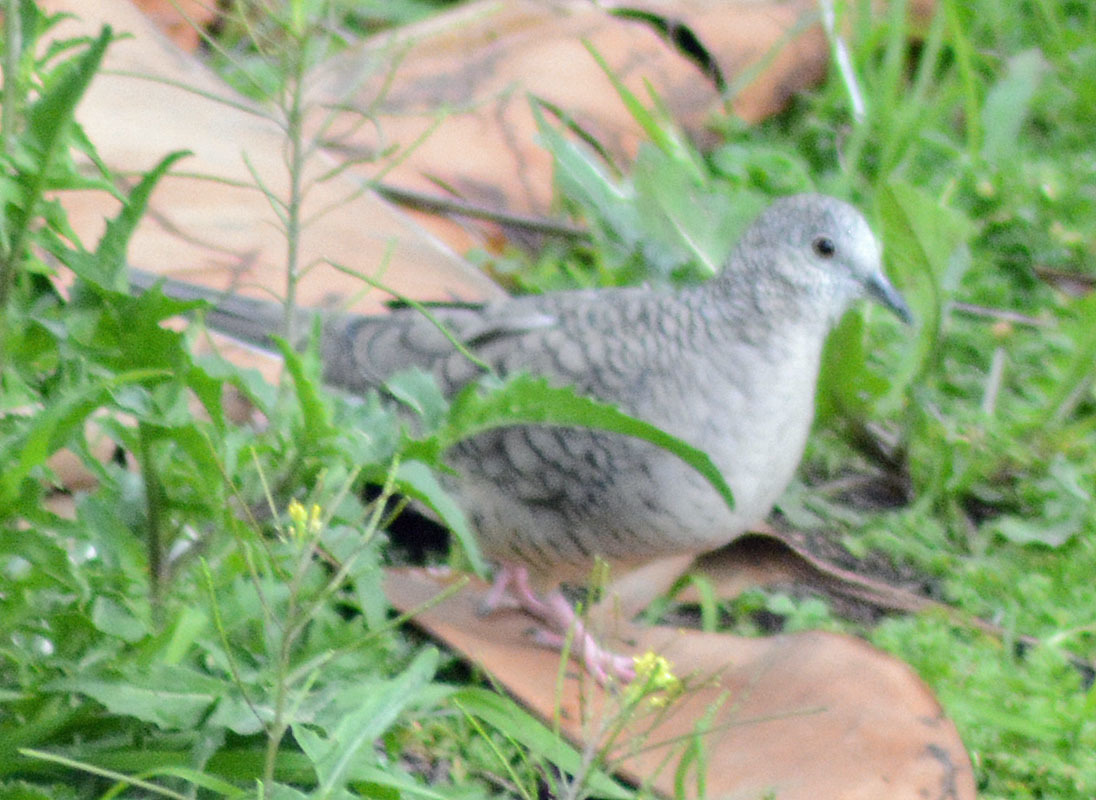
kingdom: Animalia
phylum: Chordata
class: Aves
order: Columbiformes
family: Columbidae
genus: Columbina
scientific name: Columbina inca
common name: Inca dove
